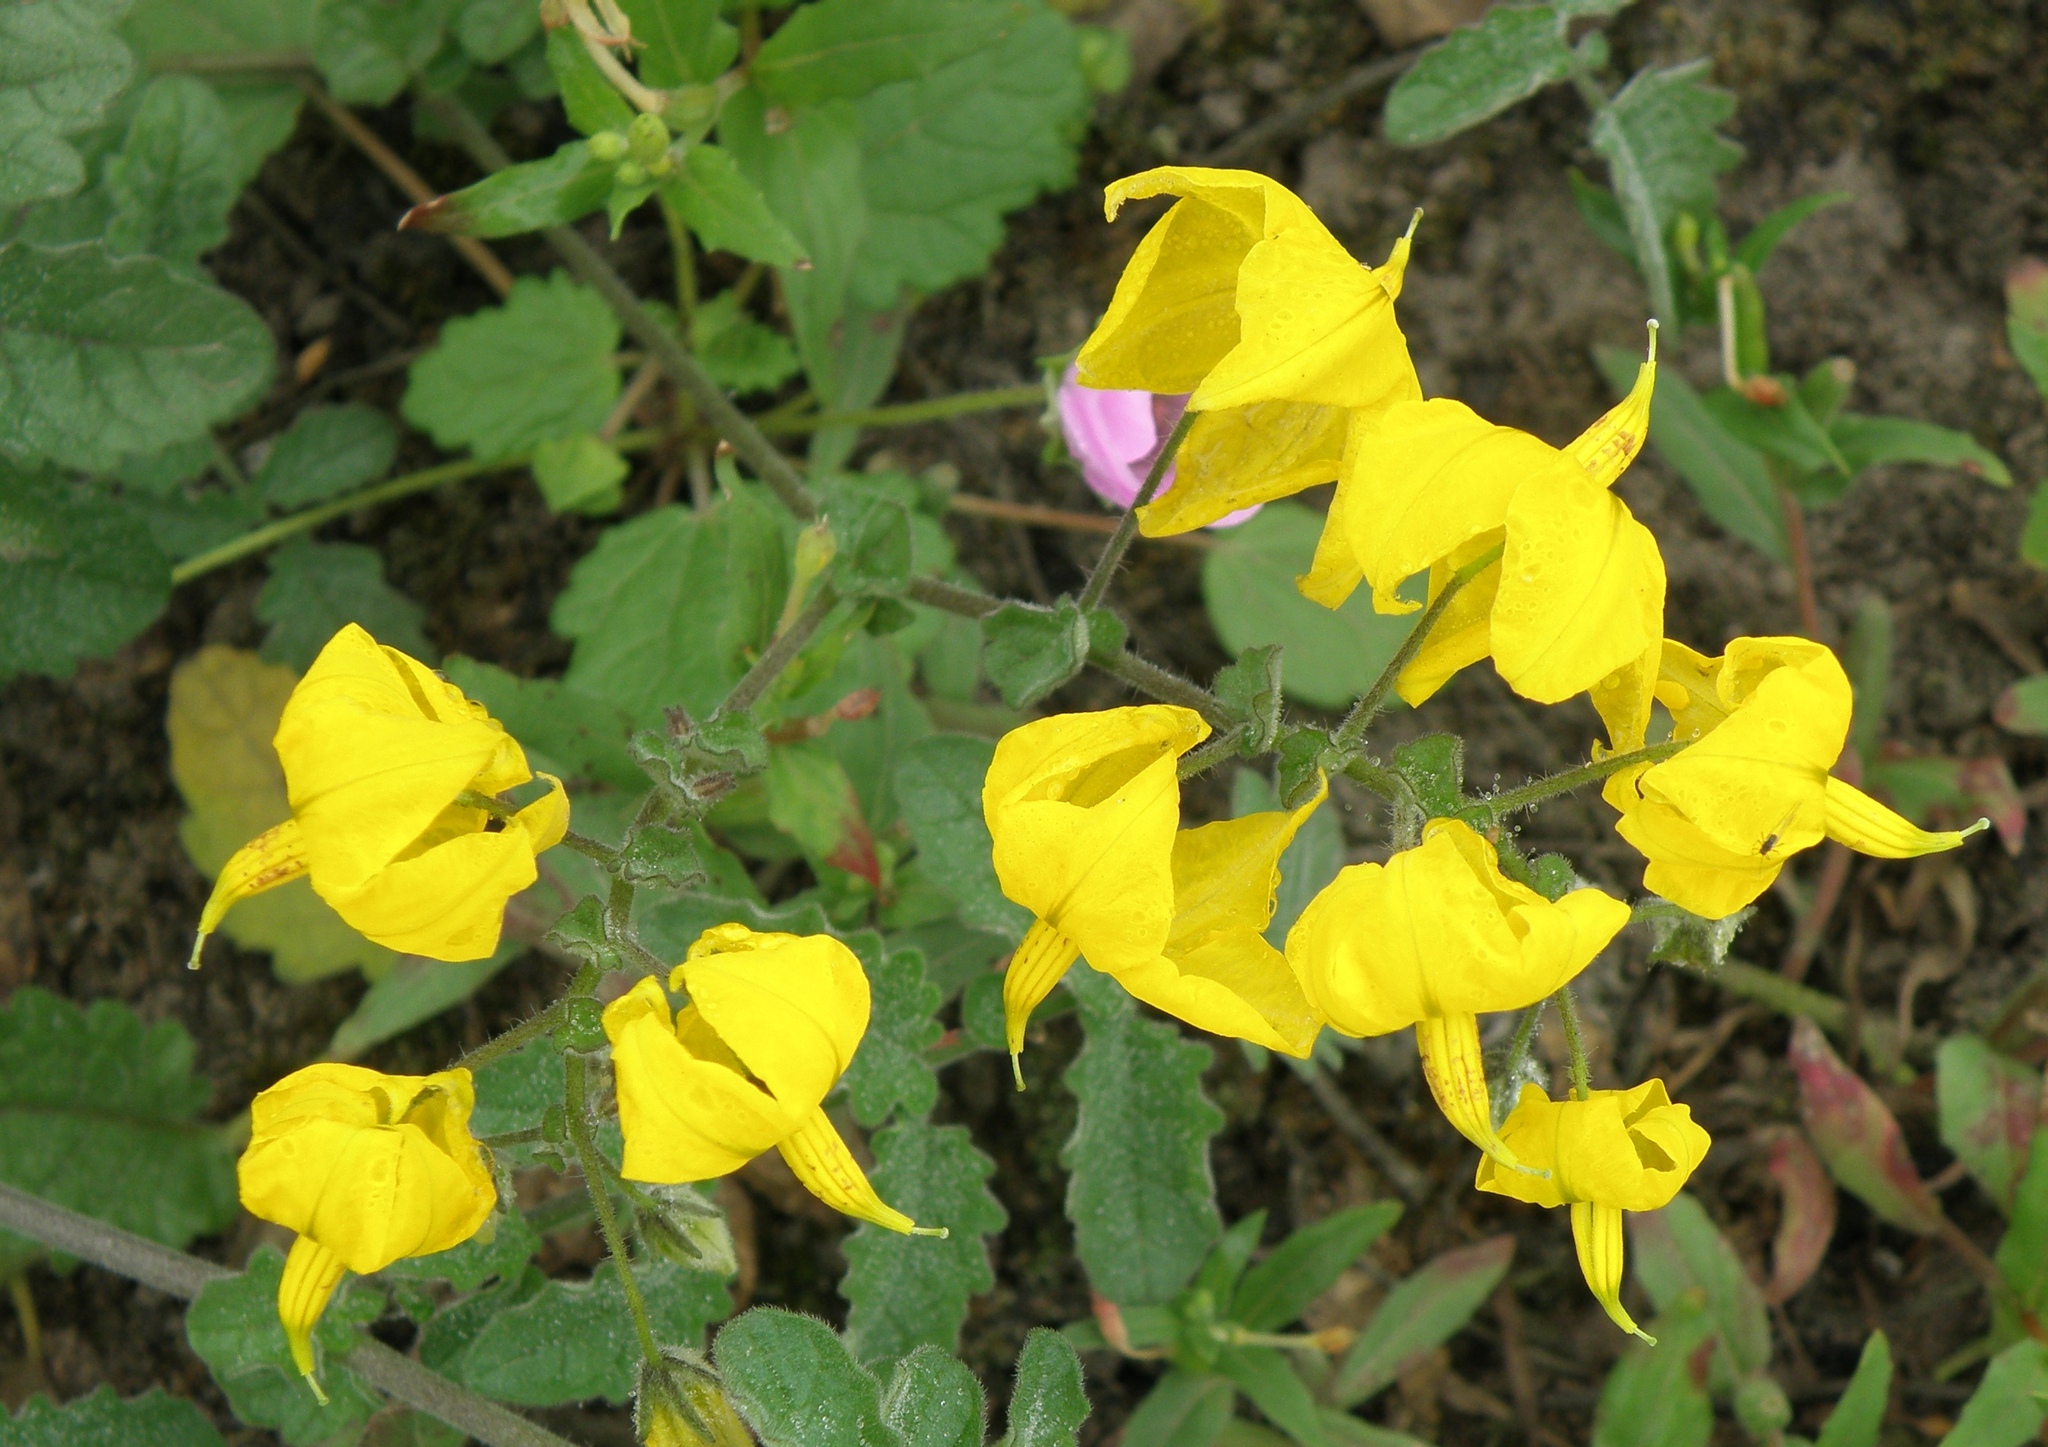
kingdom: Plantae
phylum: Tracheophyta
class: Magnoliopsida
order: Solanales
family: Solanaceae
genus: Solanum
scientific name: Solanum peruvianum
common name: Peruvian nightshade
